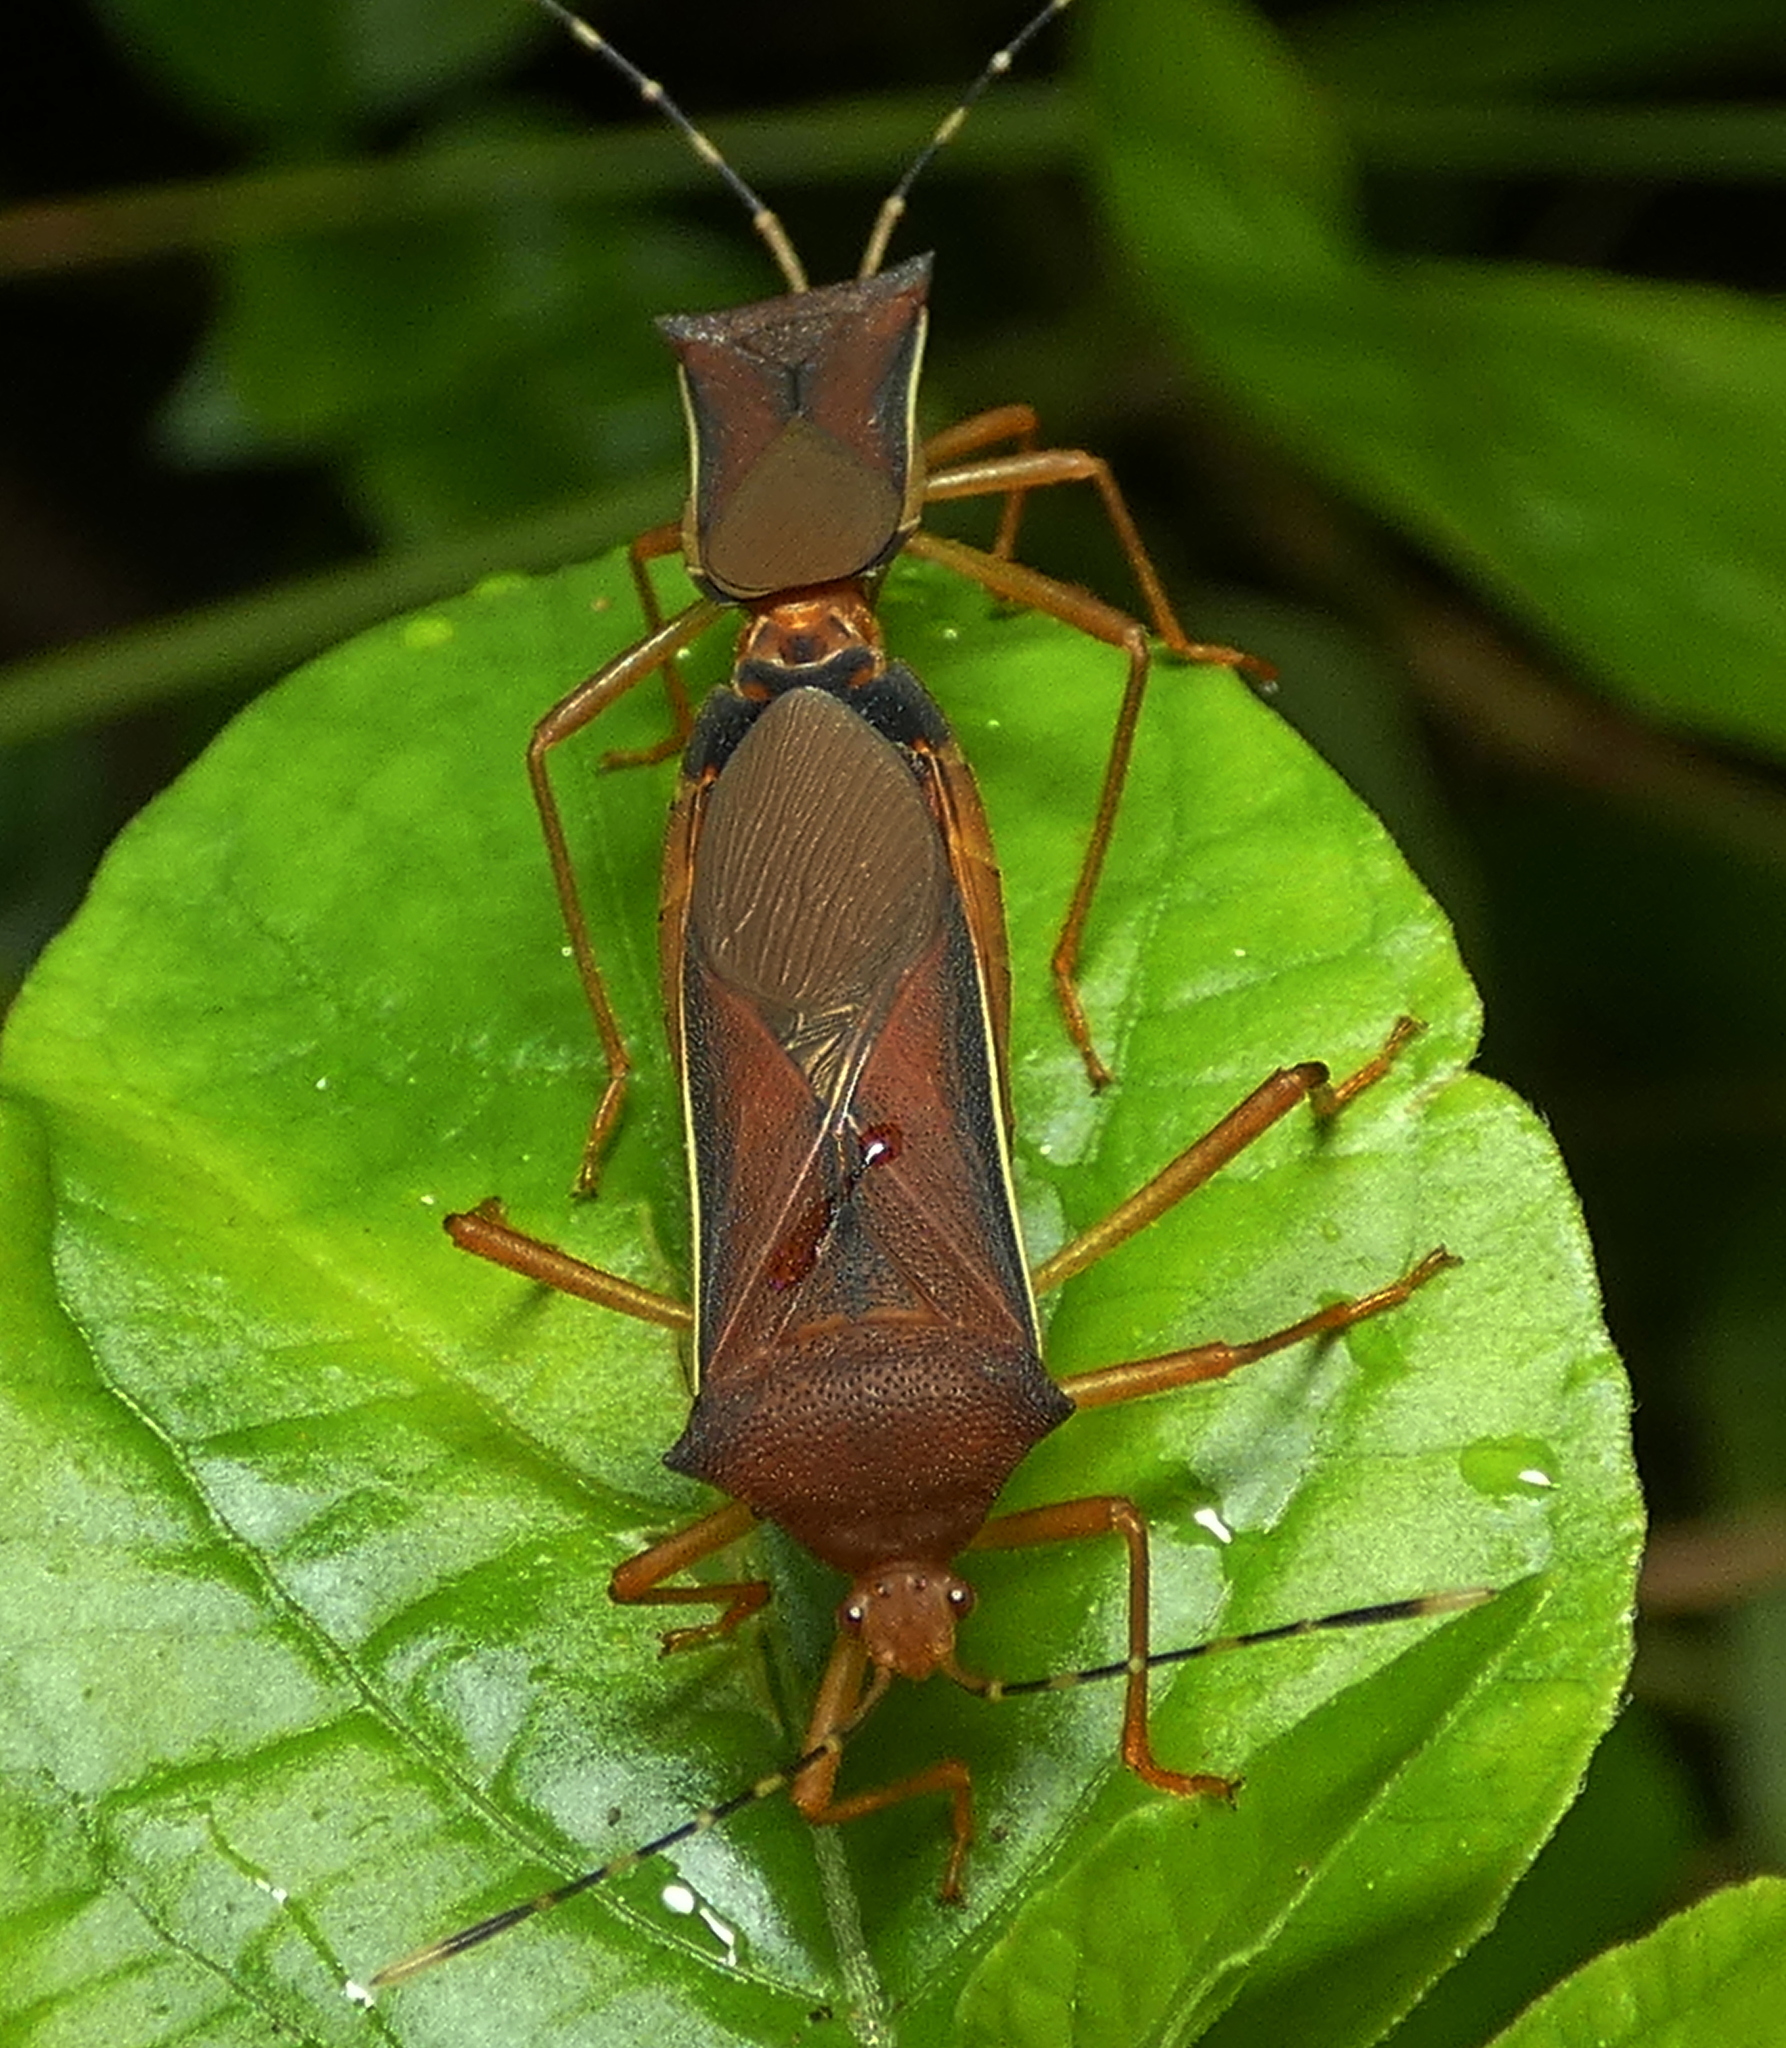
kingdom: Animalia
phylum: Arthropoda
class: Insecta
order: Hemiptera
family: Coreidae
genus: Anasa
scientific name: Anasa varicornis
